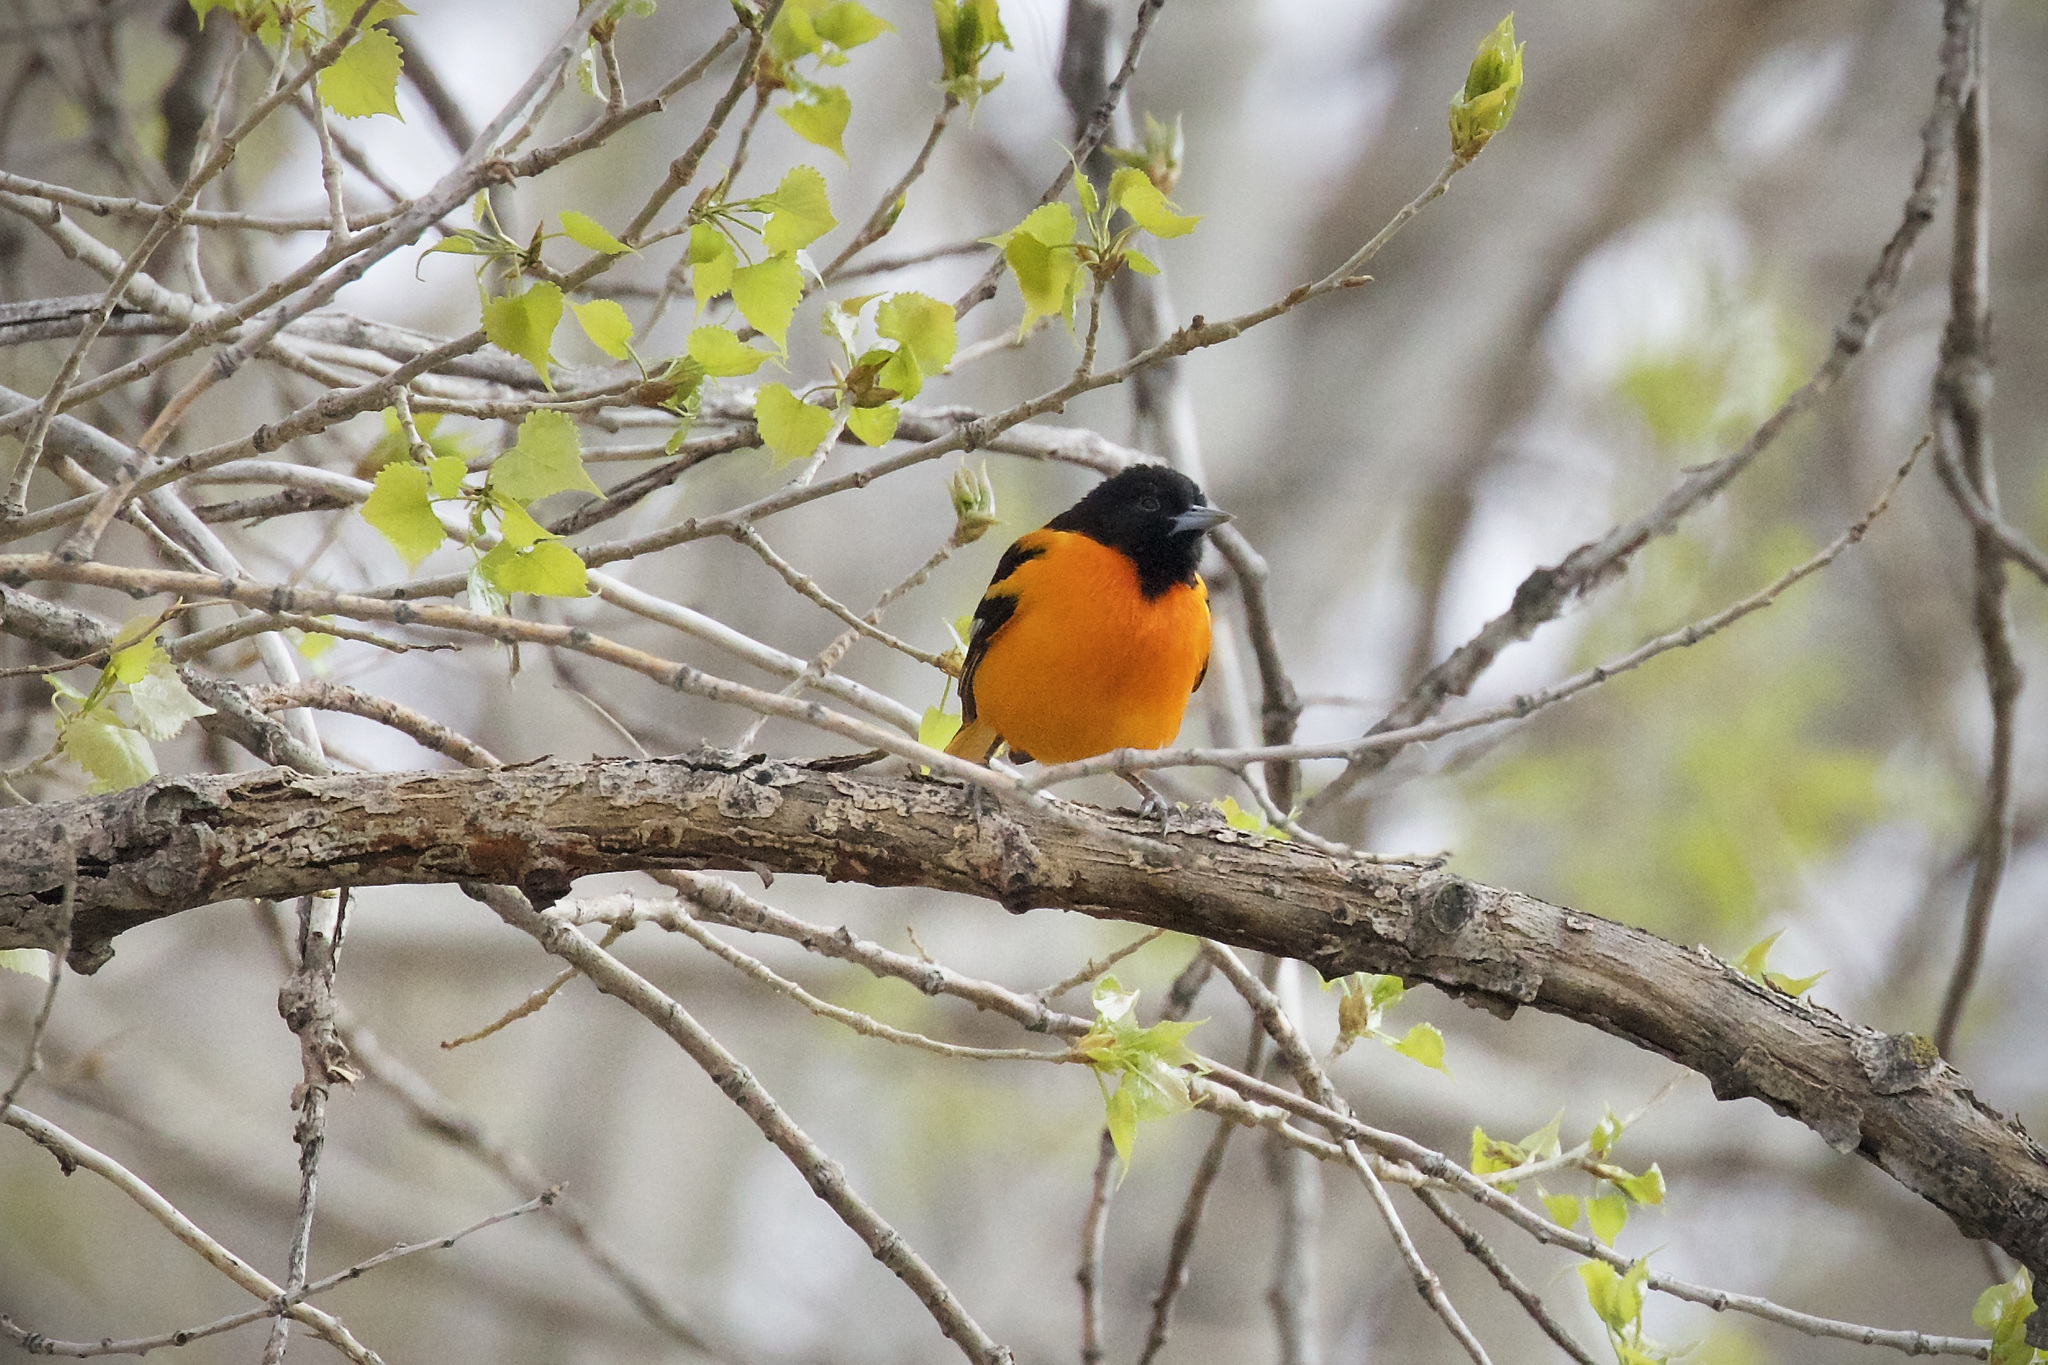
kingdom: Animalia
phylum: Chordata
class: Aves
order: Passeriformes
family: Icteridae
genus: Icterus
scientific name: Icterus galbula
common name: Baltimore oriole
